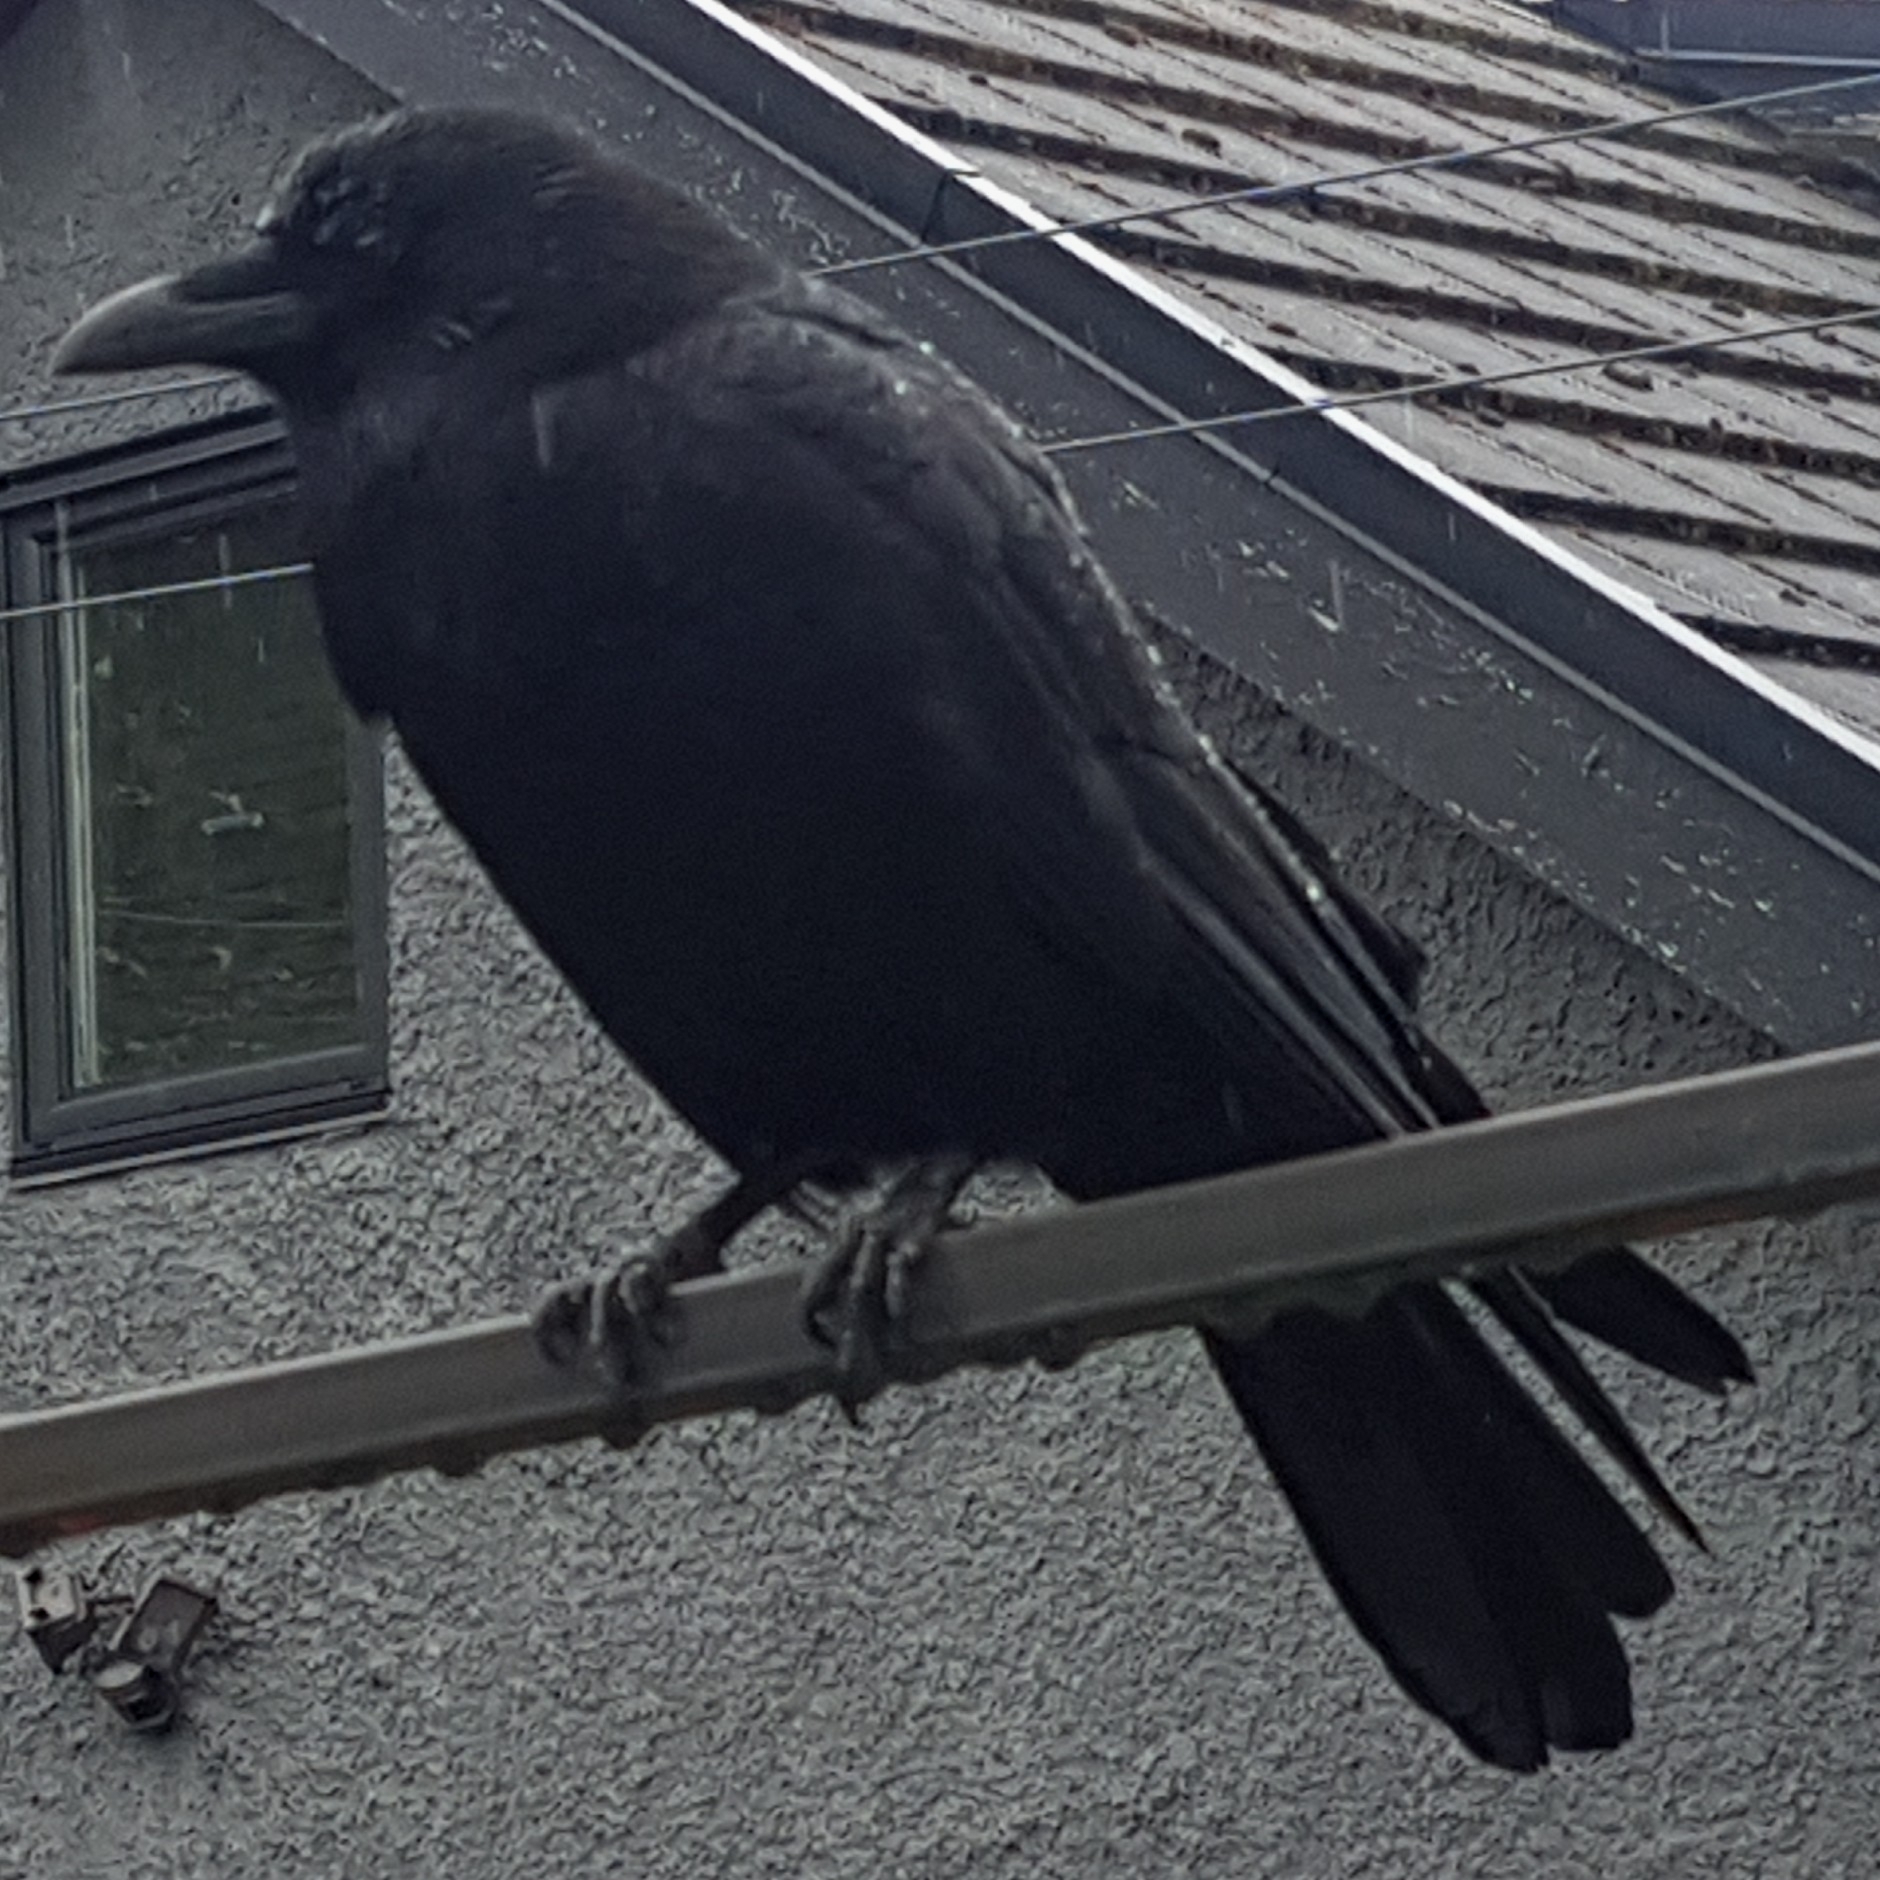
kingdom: Animalia
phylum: Chordata
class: Aves
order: Passeriformes
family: Corvidae
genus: Corvus
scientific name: Corvus brachyrhynchos
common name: American crow
